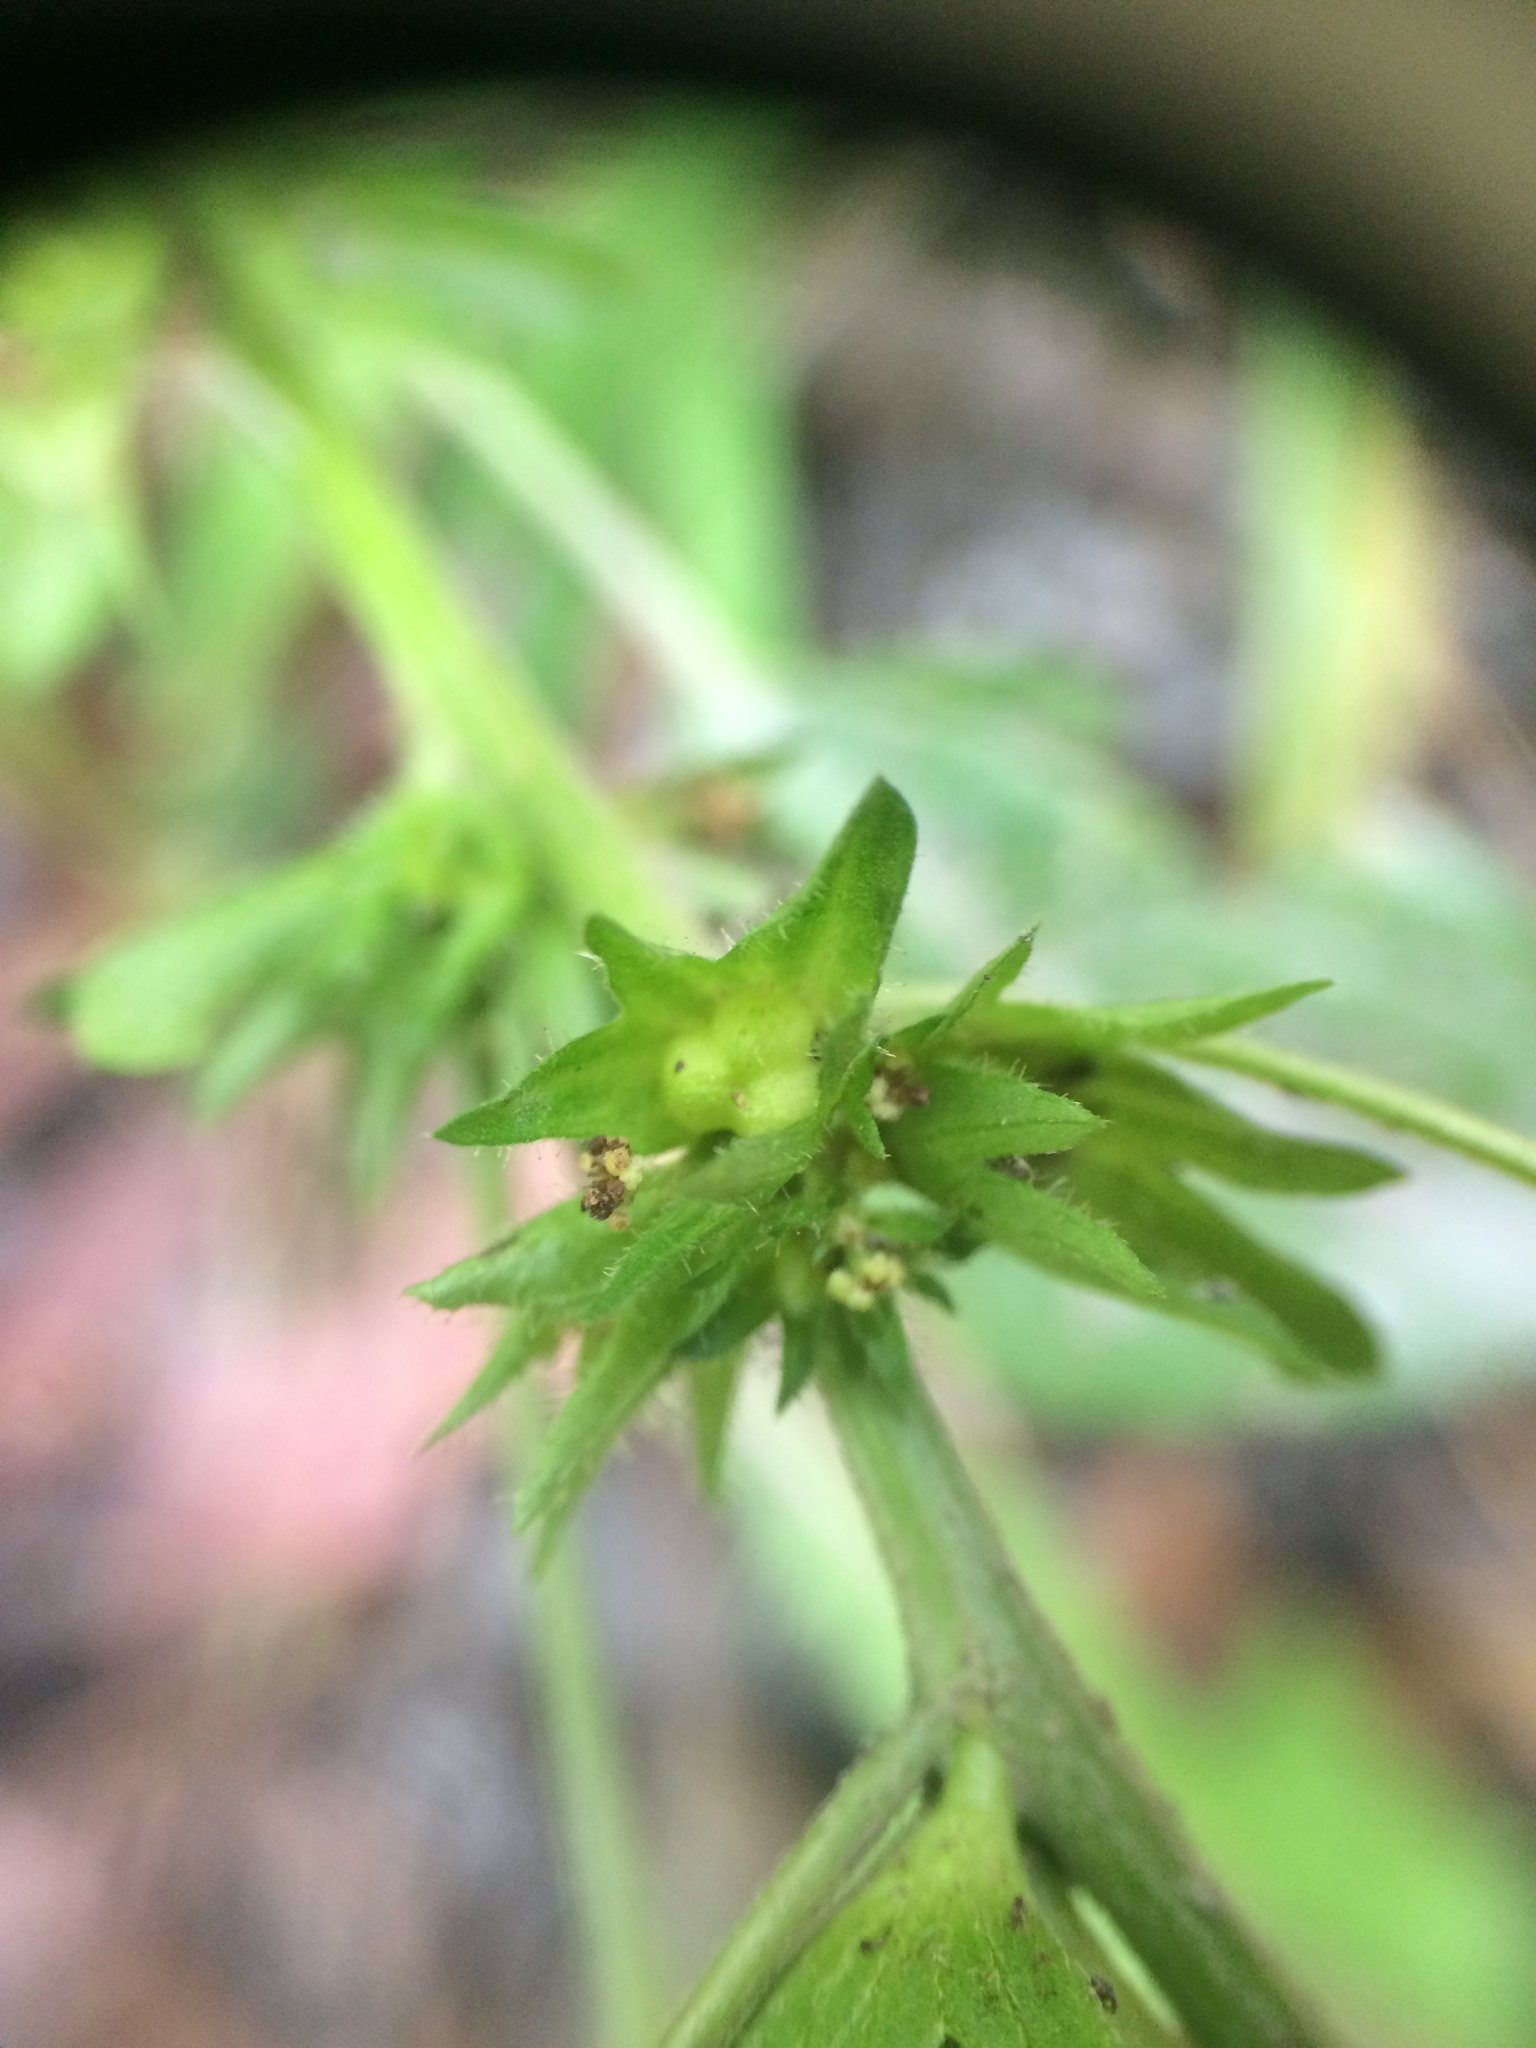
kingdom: Plantae
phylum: Tracheophyta
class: Magnoliopsida
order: Malpighiales
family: Euphorbiaceae
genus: Acalypha
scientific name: Acalypha rhomboidea
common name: Rhombic copperleaf
